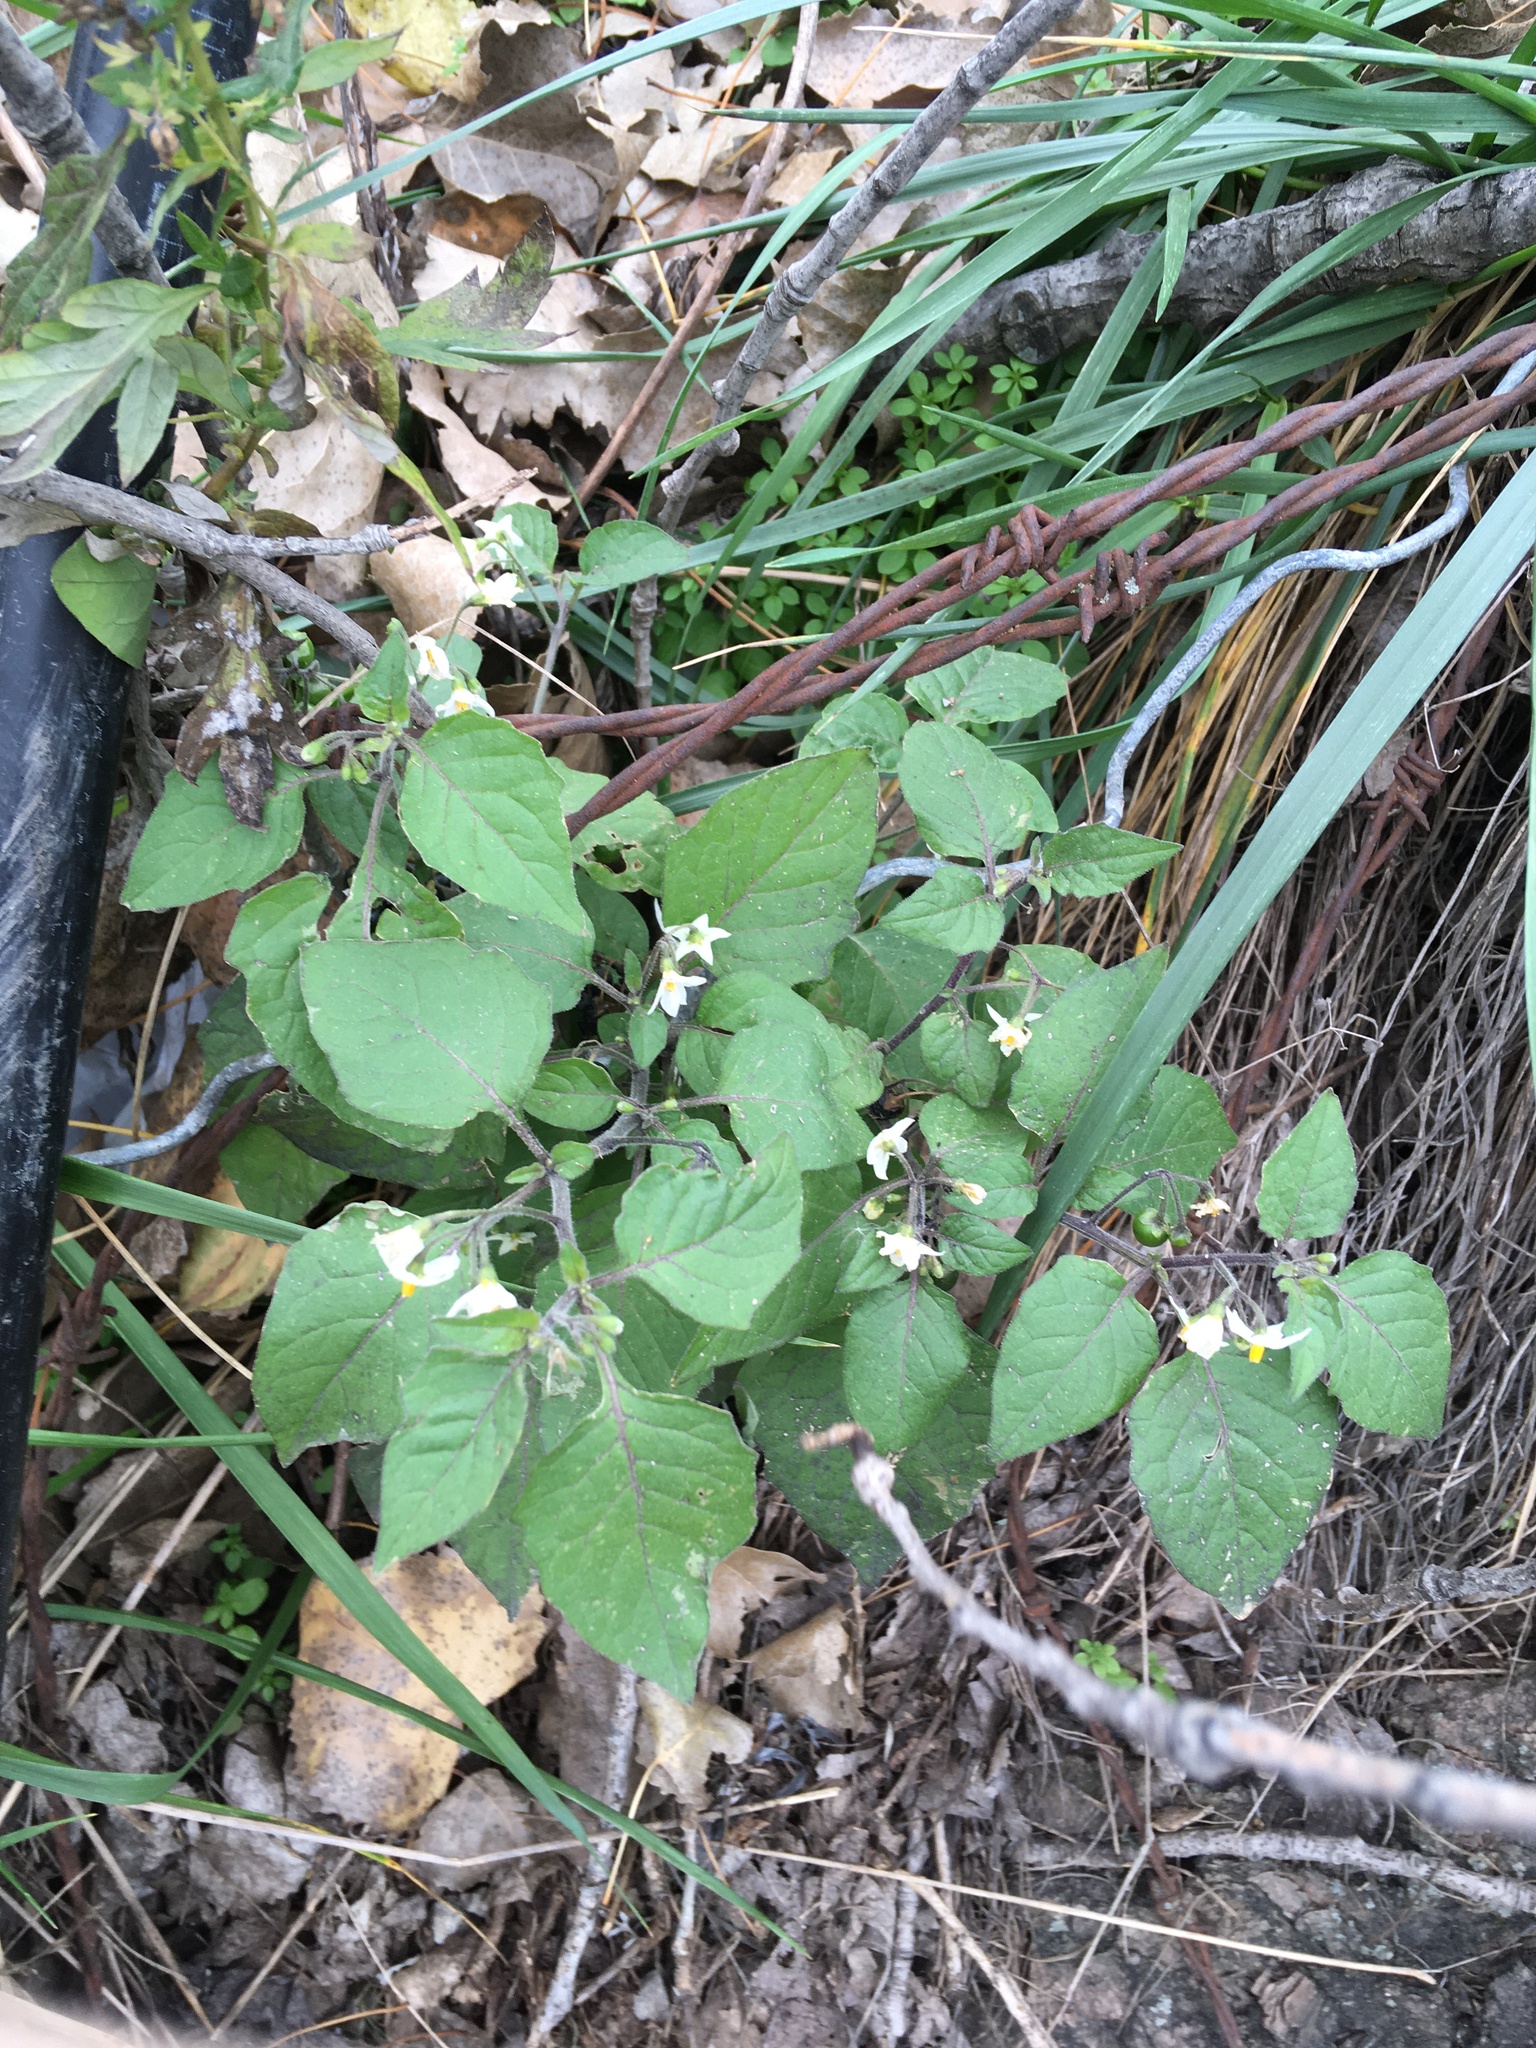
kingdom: Plantae
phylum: Tracheophyta
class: Magnoliopsida
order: Solanales
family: Solanaceae
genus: Solanum
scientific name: Solanum nigrum
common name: Black nightshade
